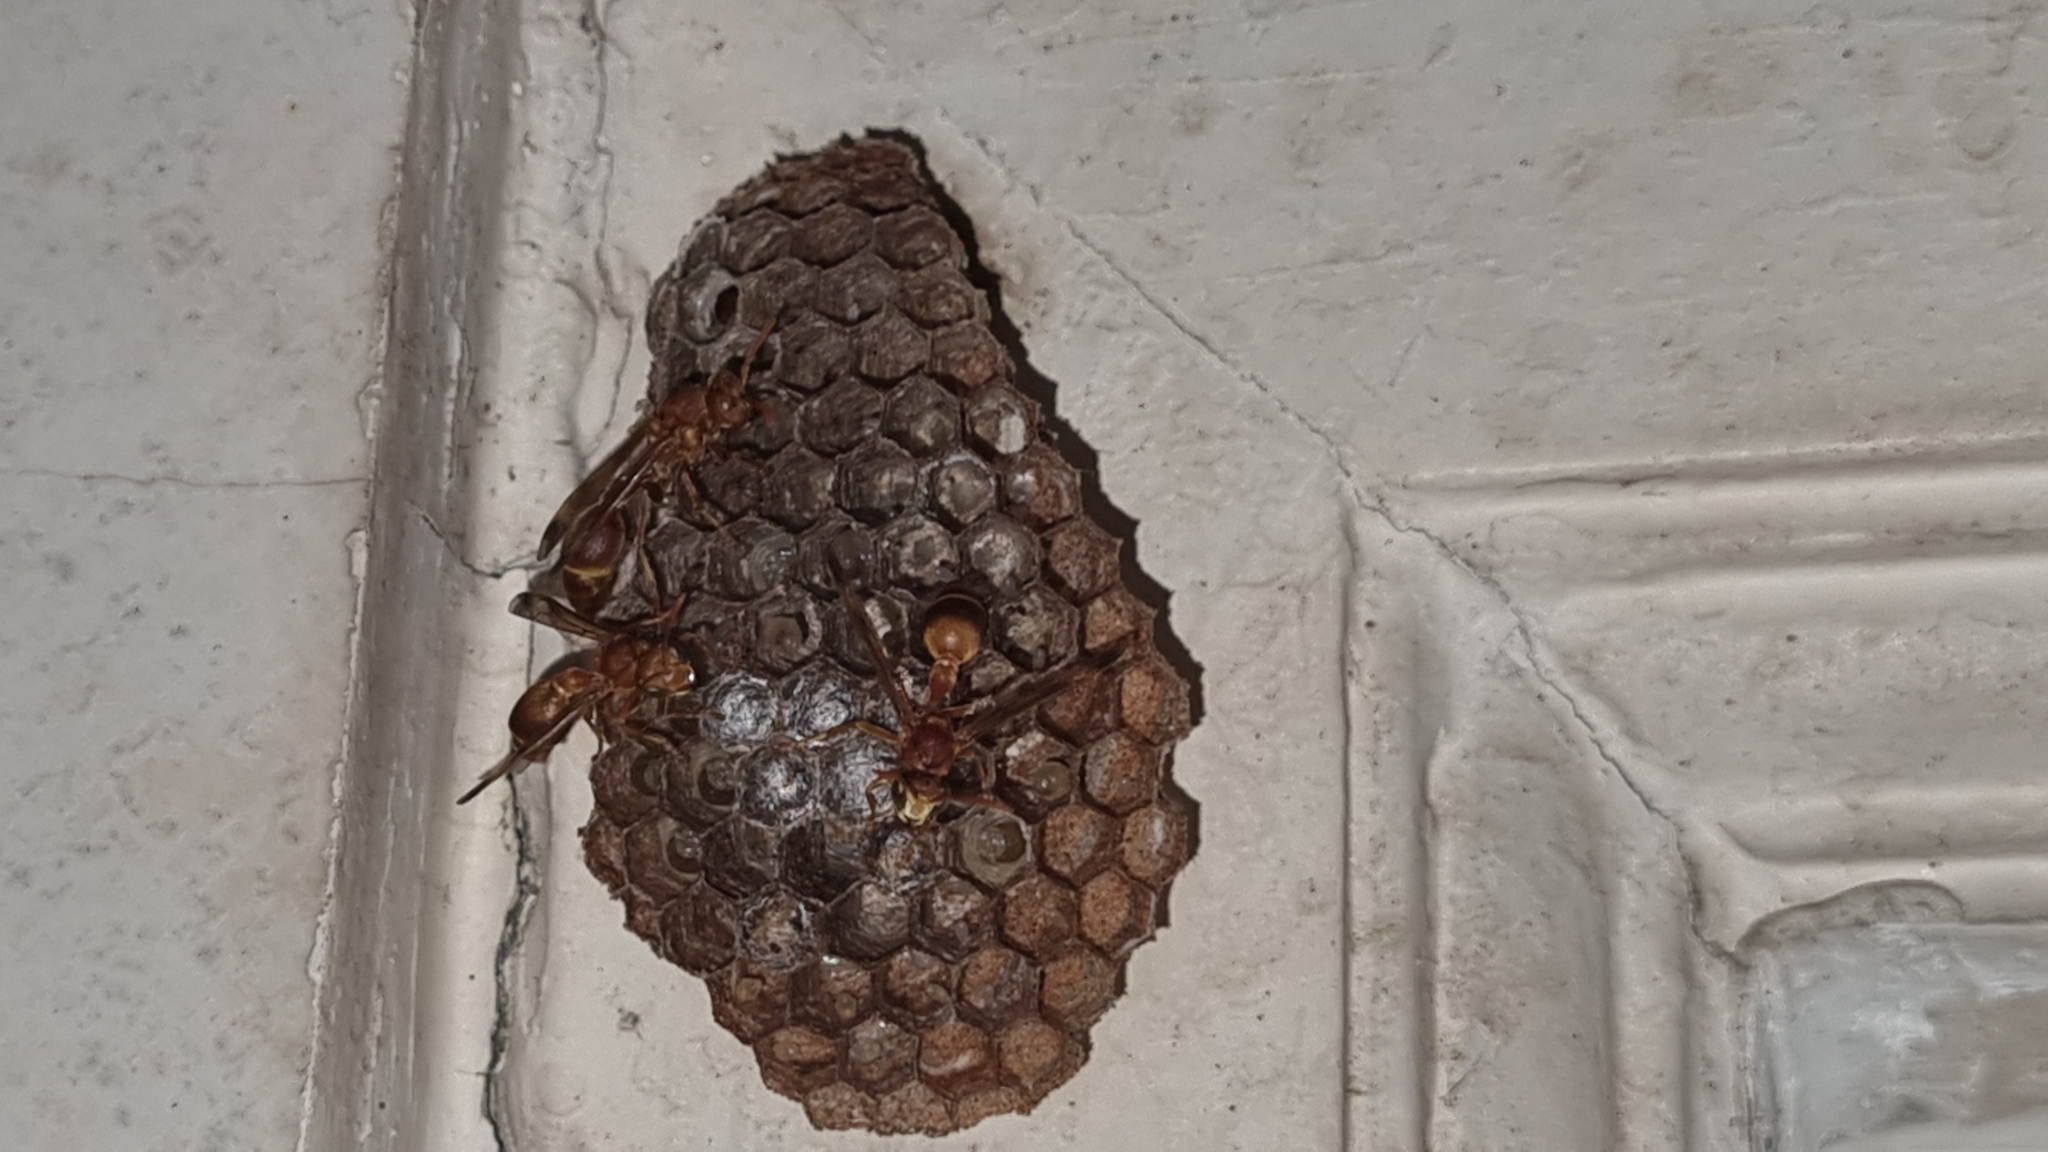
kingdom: Animalia
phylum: Arthropoda
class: Insecta
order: Hymenoptera
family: Vespidae
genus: Ropalidia
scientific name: Ropalidia marginata
